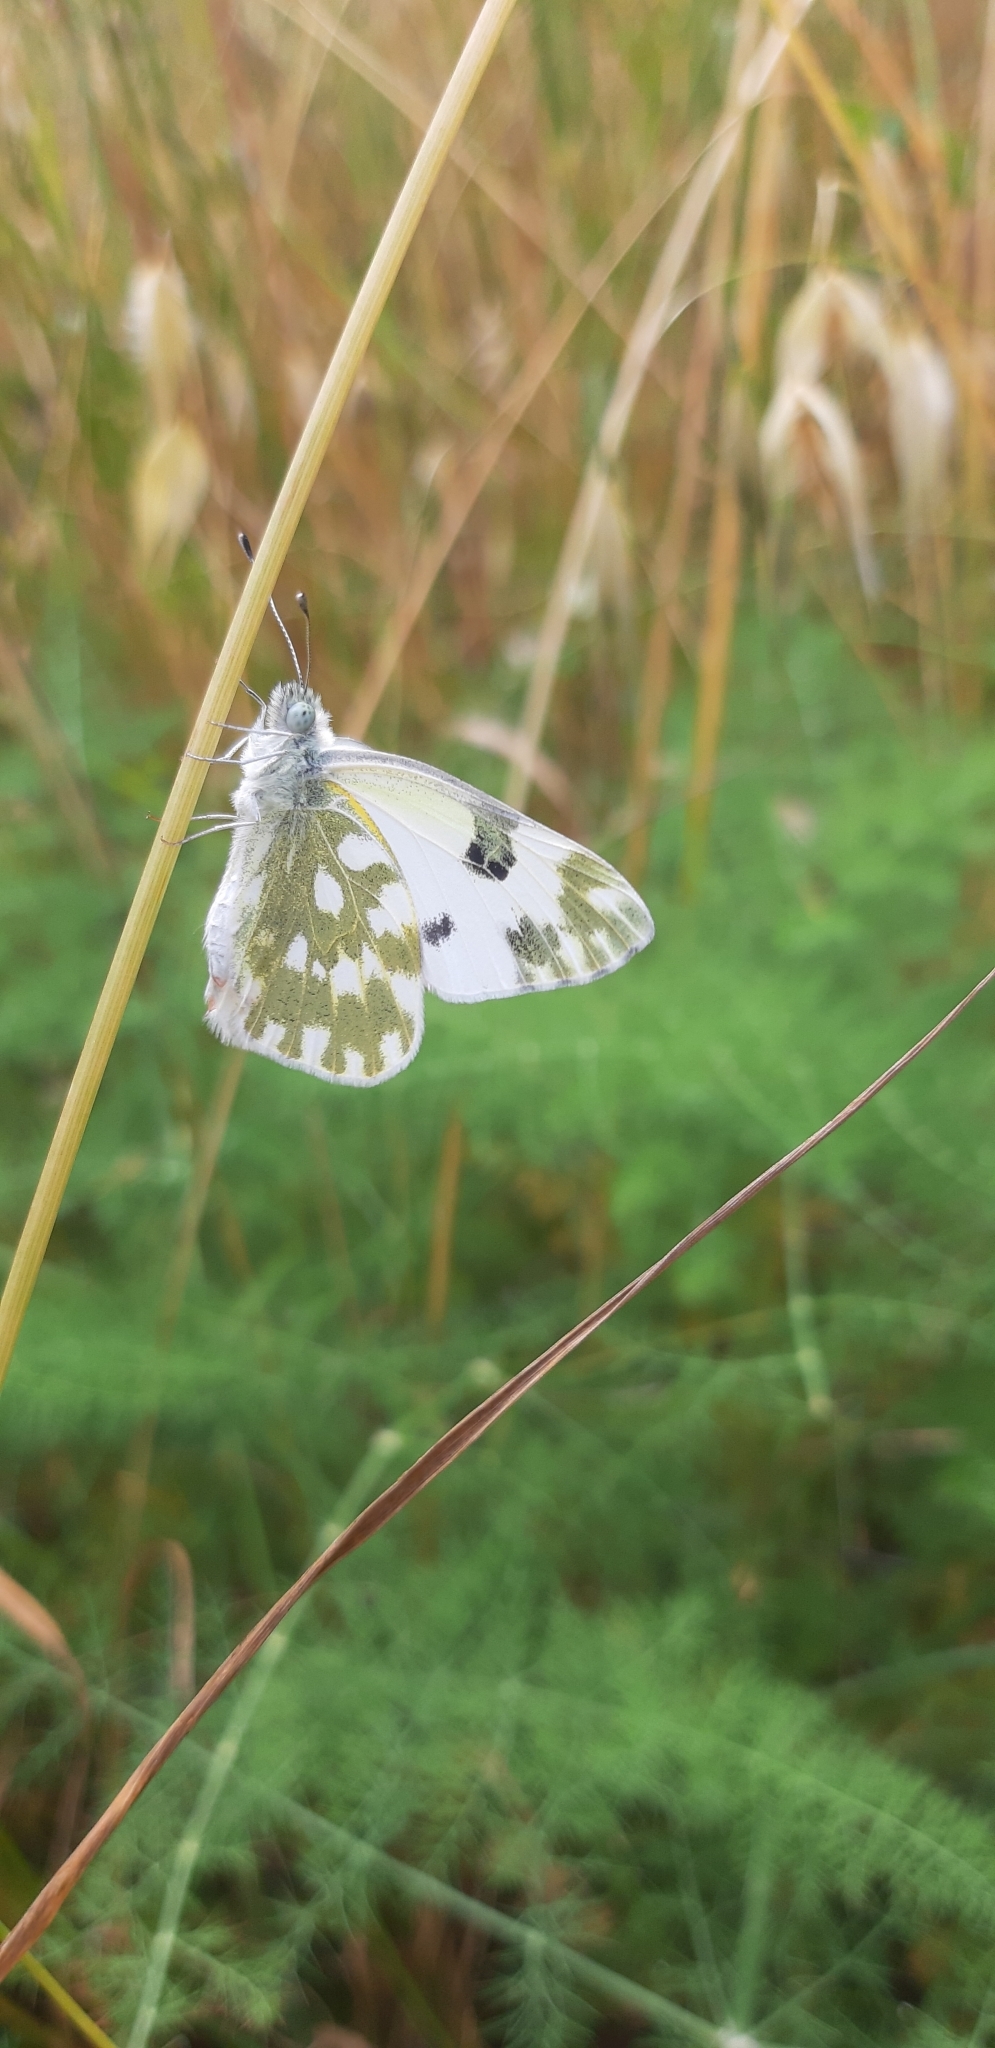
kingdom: Animalia
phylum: Arthropoda
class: Insecta
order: Lepidoptera
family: Pieridae
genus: Pontia
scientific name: Pontia edusa
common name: Eastern bath white
